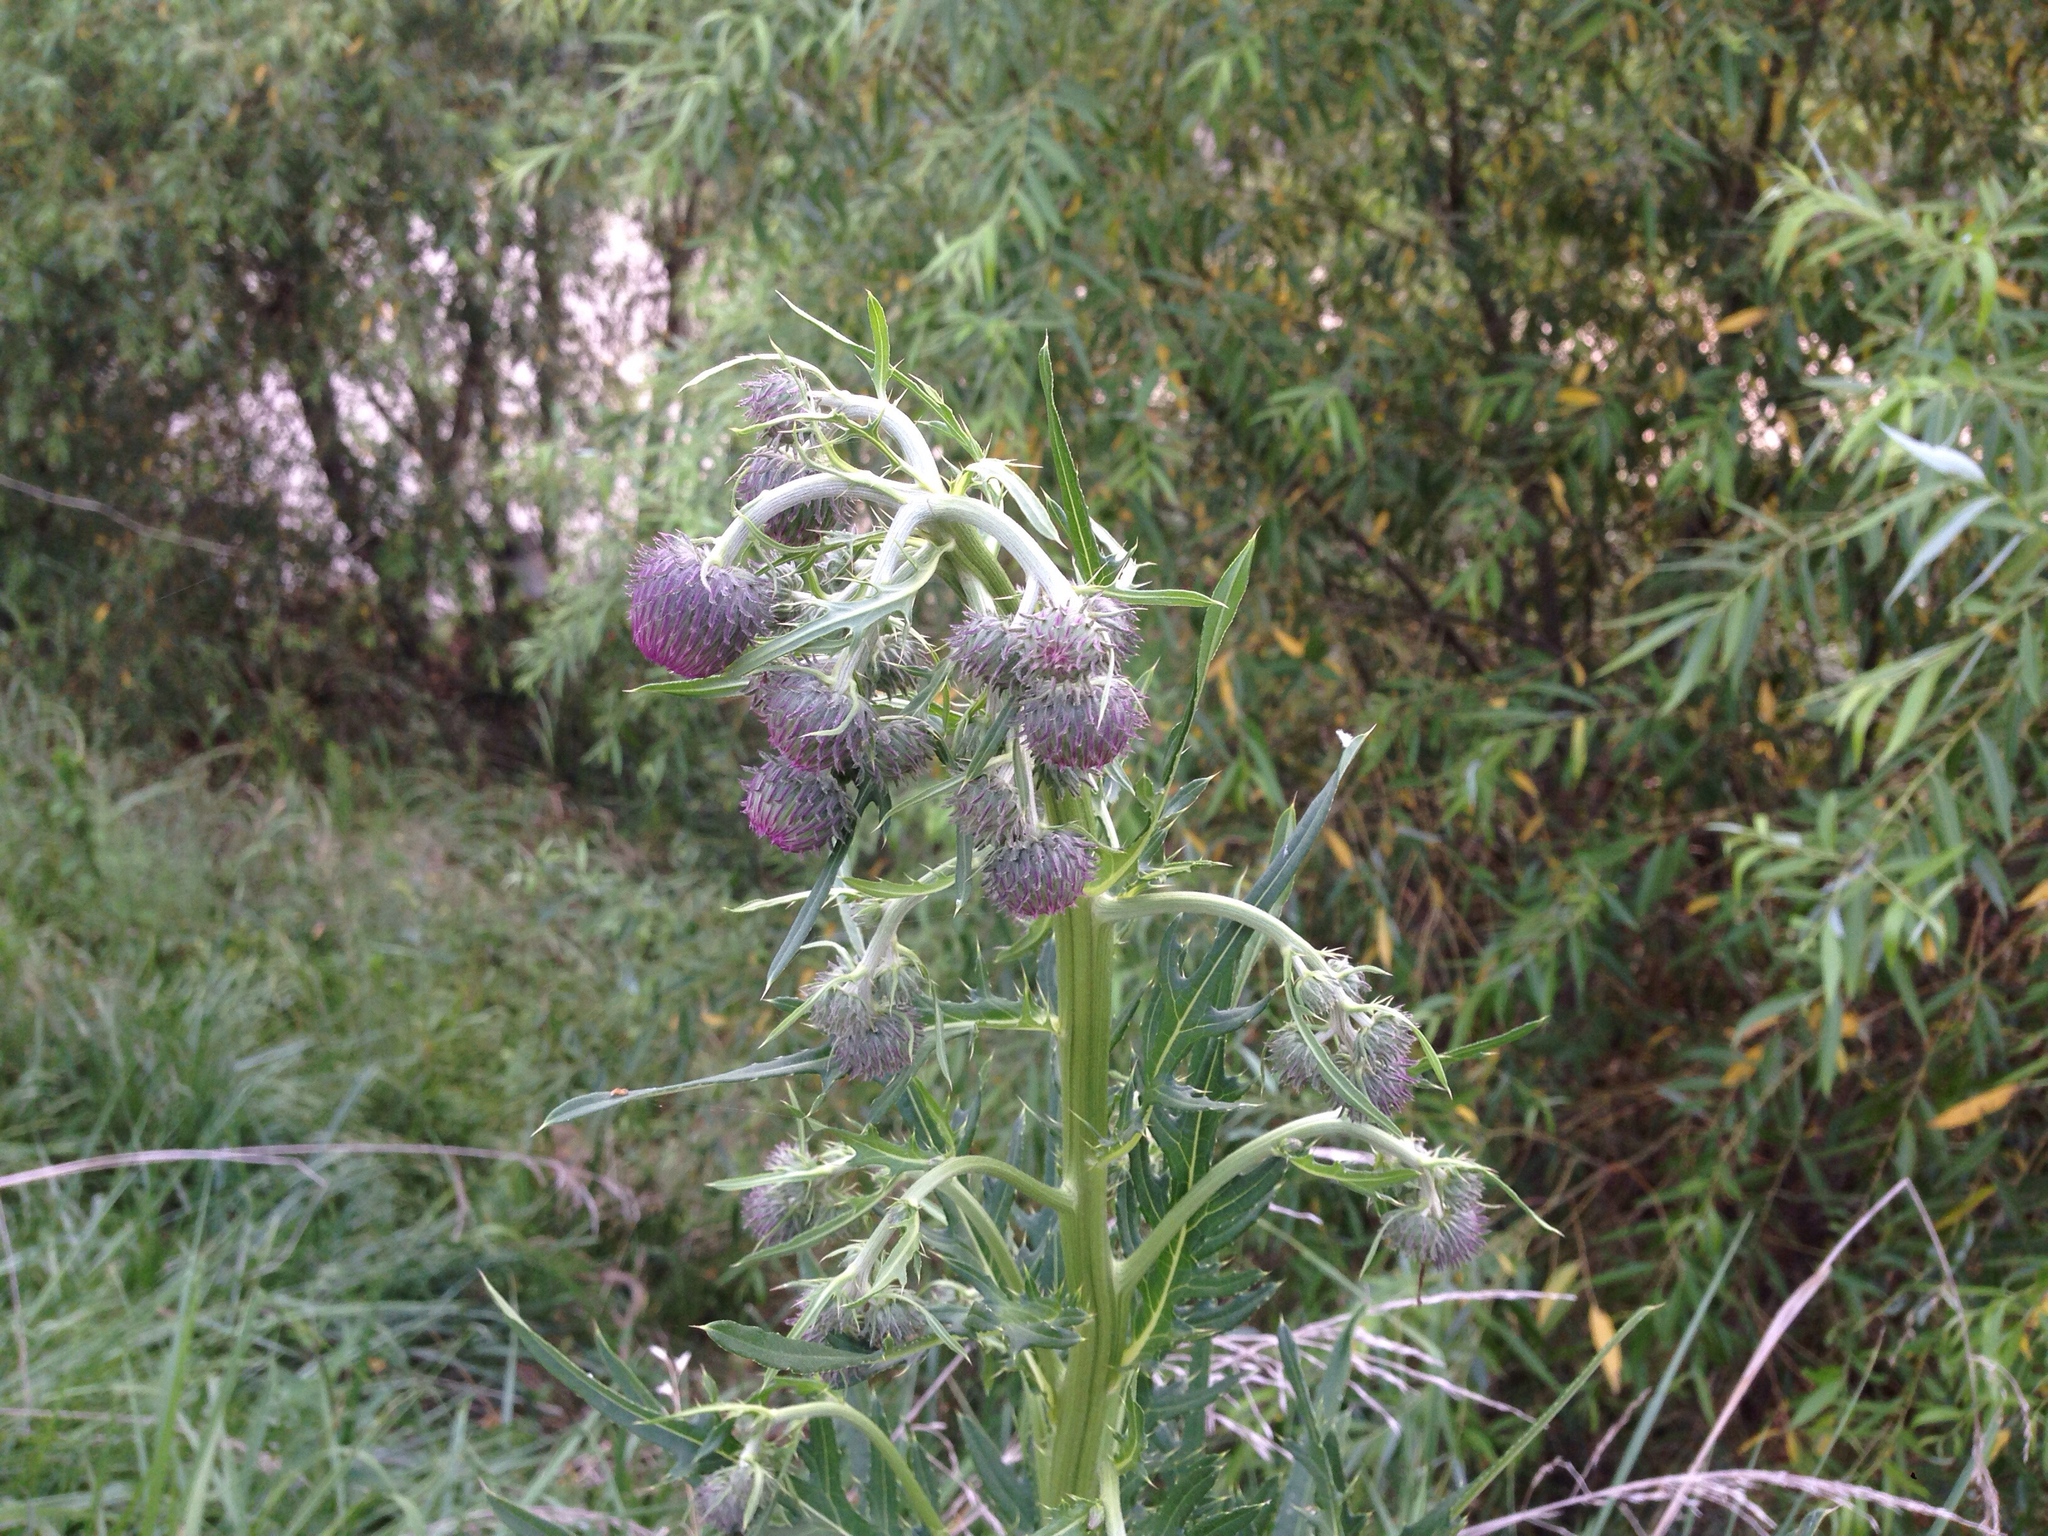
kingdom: Plantae
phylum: Tracheophyta
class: Magnoliopsida
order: Asterales
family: Asteraceae
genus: Cirsium
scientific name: Cirsium arvense
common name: Creeping thistle
